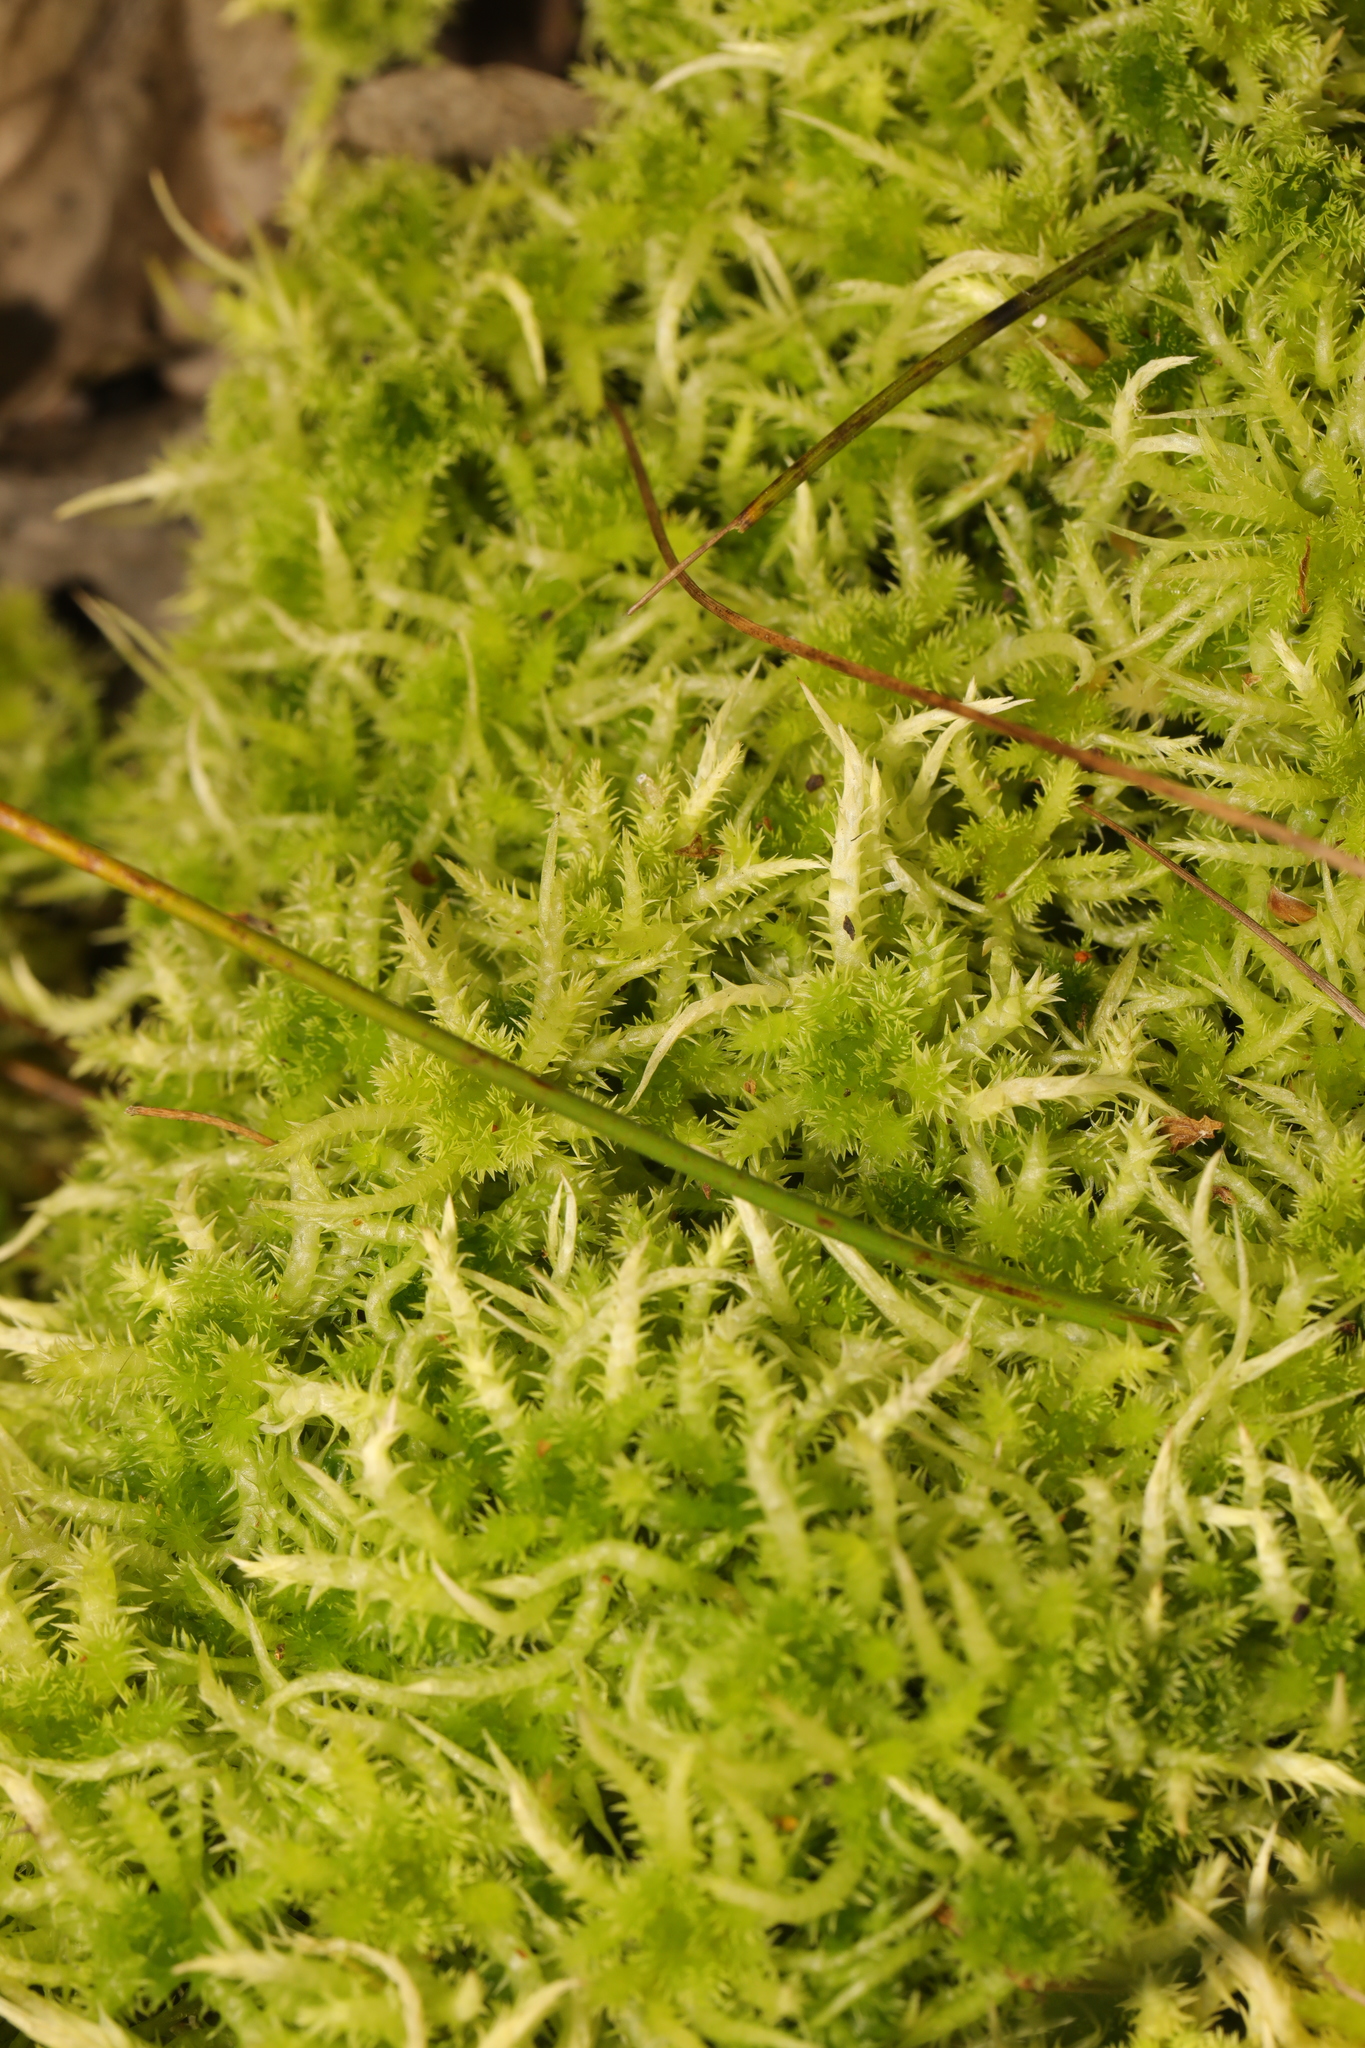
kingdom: Plantae
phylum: Bryophyta
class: Sphagnopsida
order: Sphagnales
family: Sphagnaceae
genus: Sphagnum
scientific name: Sphagnum squarrosum
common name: Shaggy peat moss
